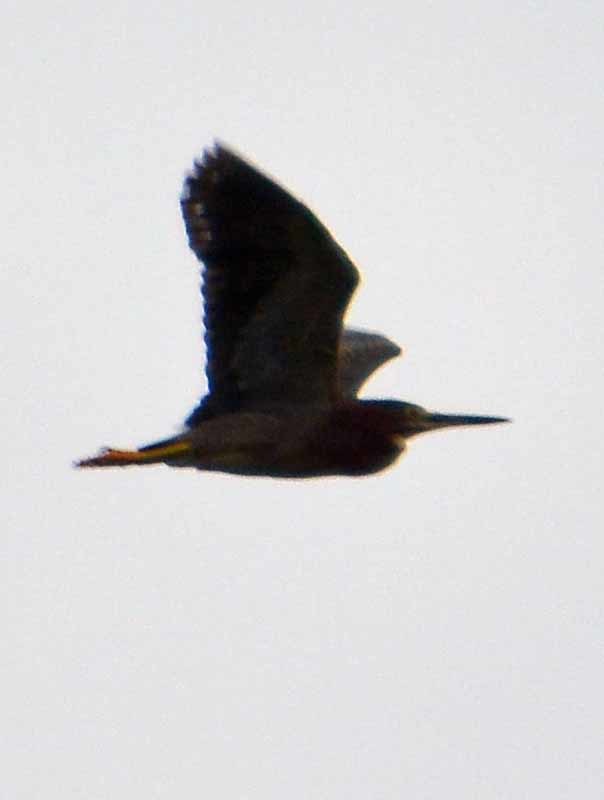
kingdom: Animalia
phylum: Chordata
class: Aves
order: Pelecaniformes
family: Ardeidae
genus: Butorides
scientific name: Butorides virescens
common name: Green heron
